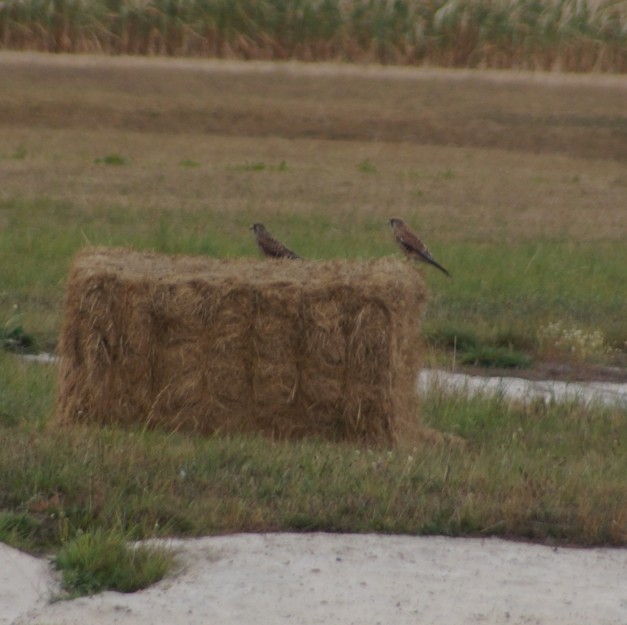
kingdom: Animalia
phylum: Chordata
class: Aves
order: Falconiformes
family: Falconidae
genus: Falco
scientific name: Falco tinnunculus
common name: Common kestrel
